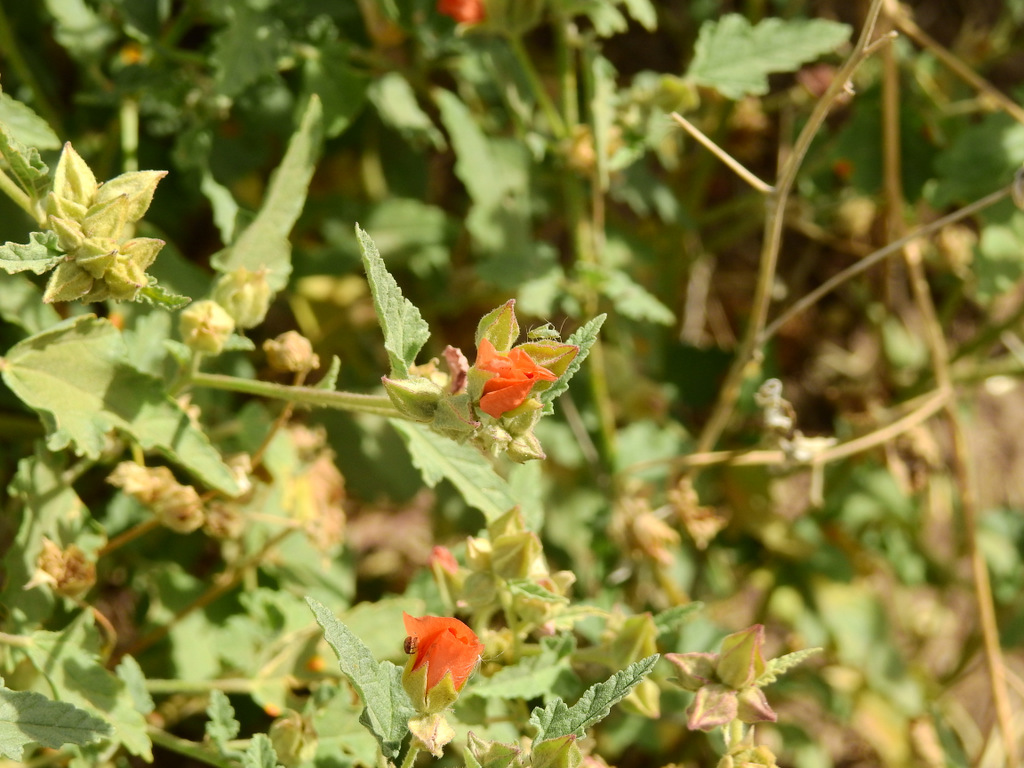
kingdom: Plantae
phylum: Tracheophyta
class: Magnoliopsida
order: Malvales
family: Malvaceae
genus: Sphaeralcea
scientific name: Sphaeralcea miniata
